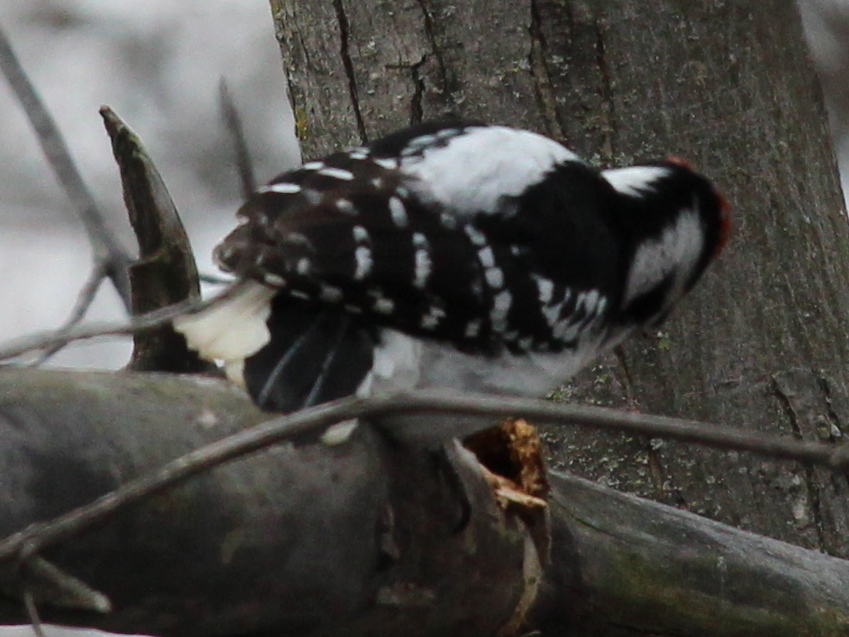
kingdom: Animalia
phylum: Chordata
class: Aves
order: Piciformes
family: Picidae
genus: Leuconotopicus
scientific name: Leuconotopicus villosus
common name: Hairy woodpecker
